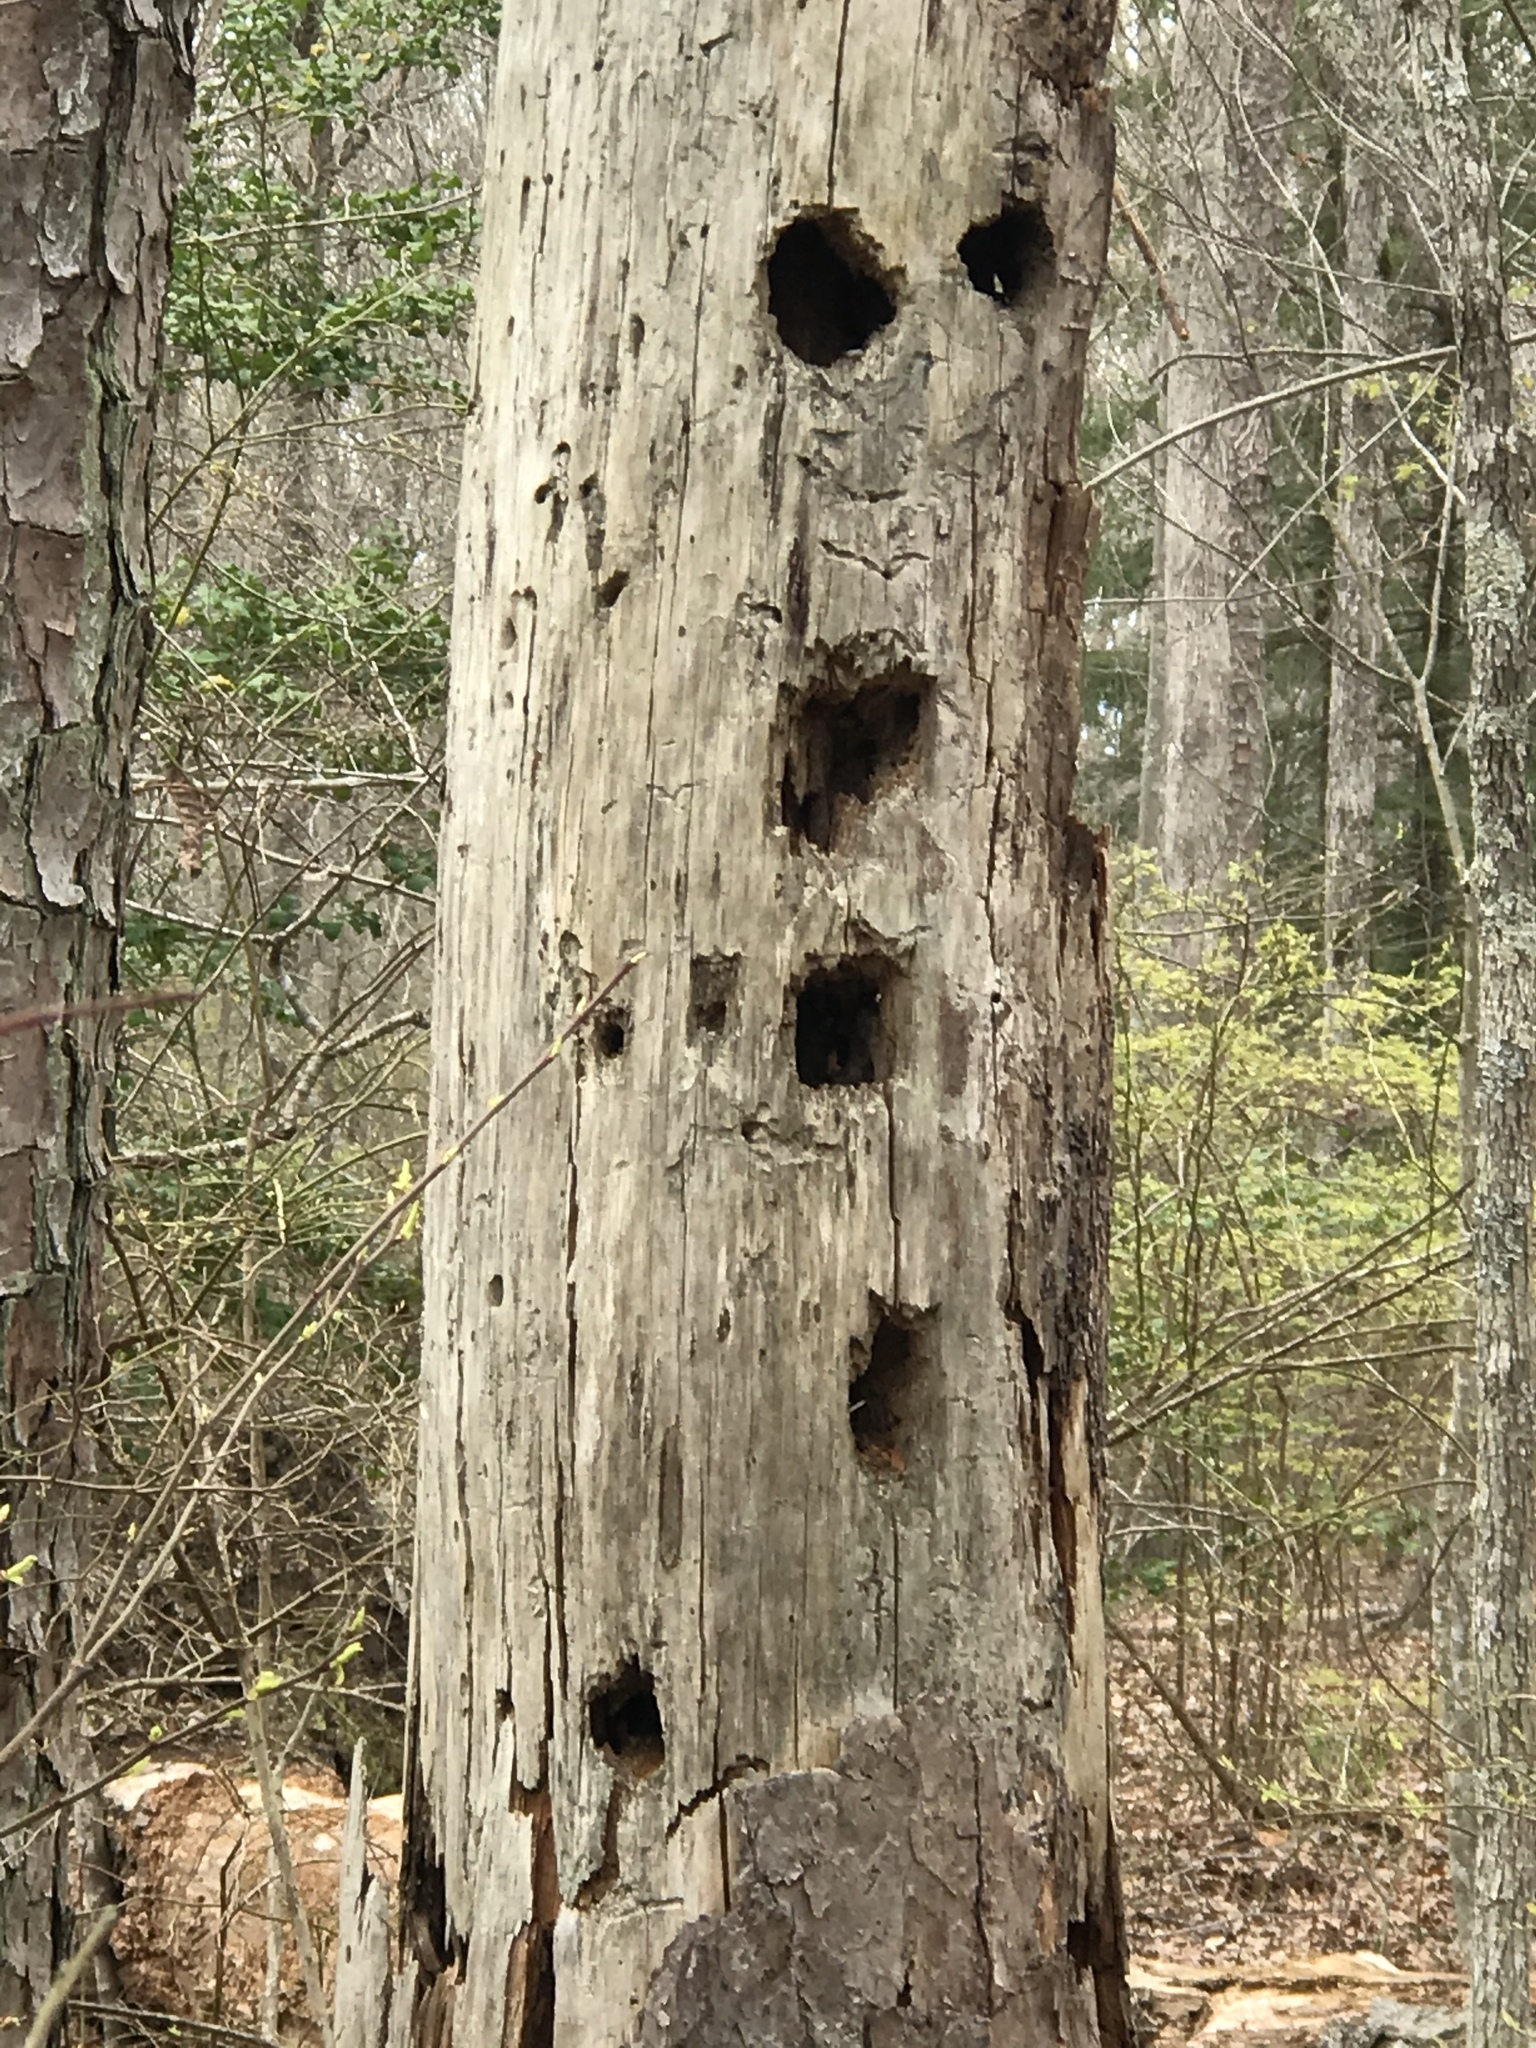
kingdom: Animalia
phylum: Chordata
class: Aves
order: Piciformes
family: Picidae
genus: Dryocopus
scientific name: Dryocopus pileatus
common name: Pileated woodpecker
